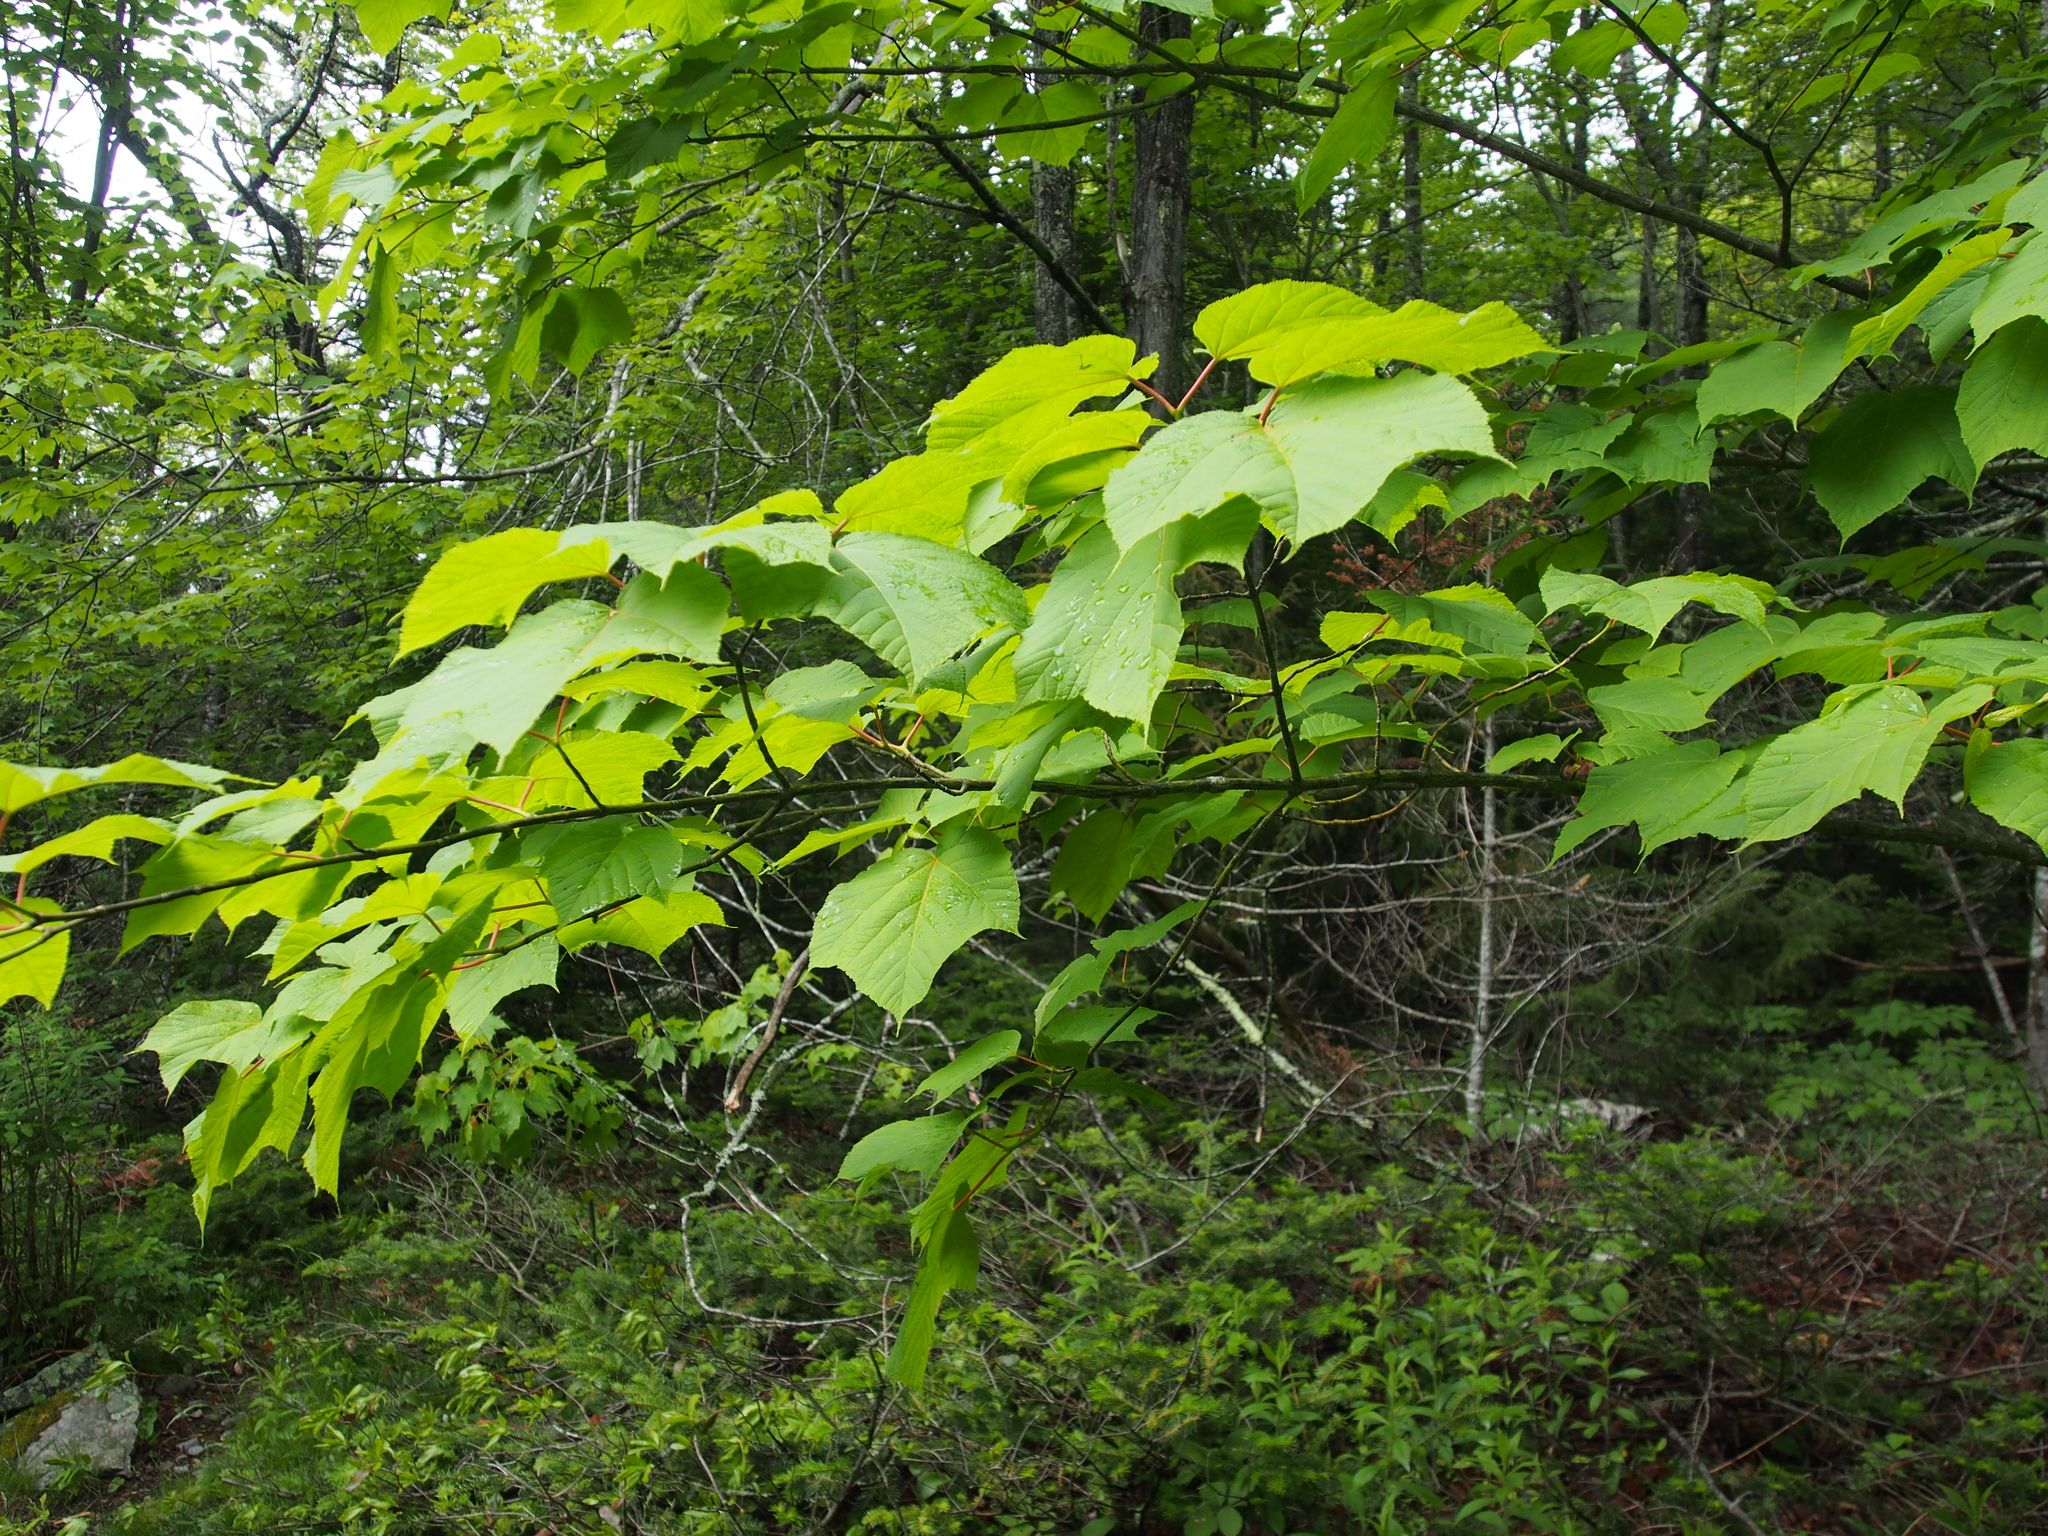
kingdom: Plantae
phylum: Tracheophyta
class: Magnoliopsida
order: Sapindales
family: Sapindaceae
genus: Acer
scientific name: Acer pensylvanicum
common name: Moosewood
